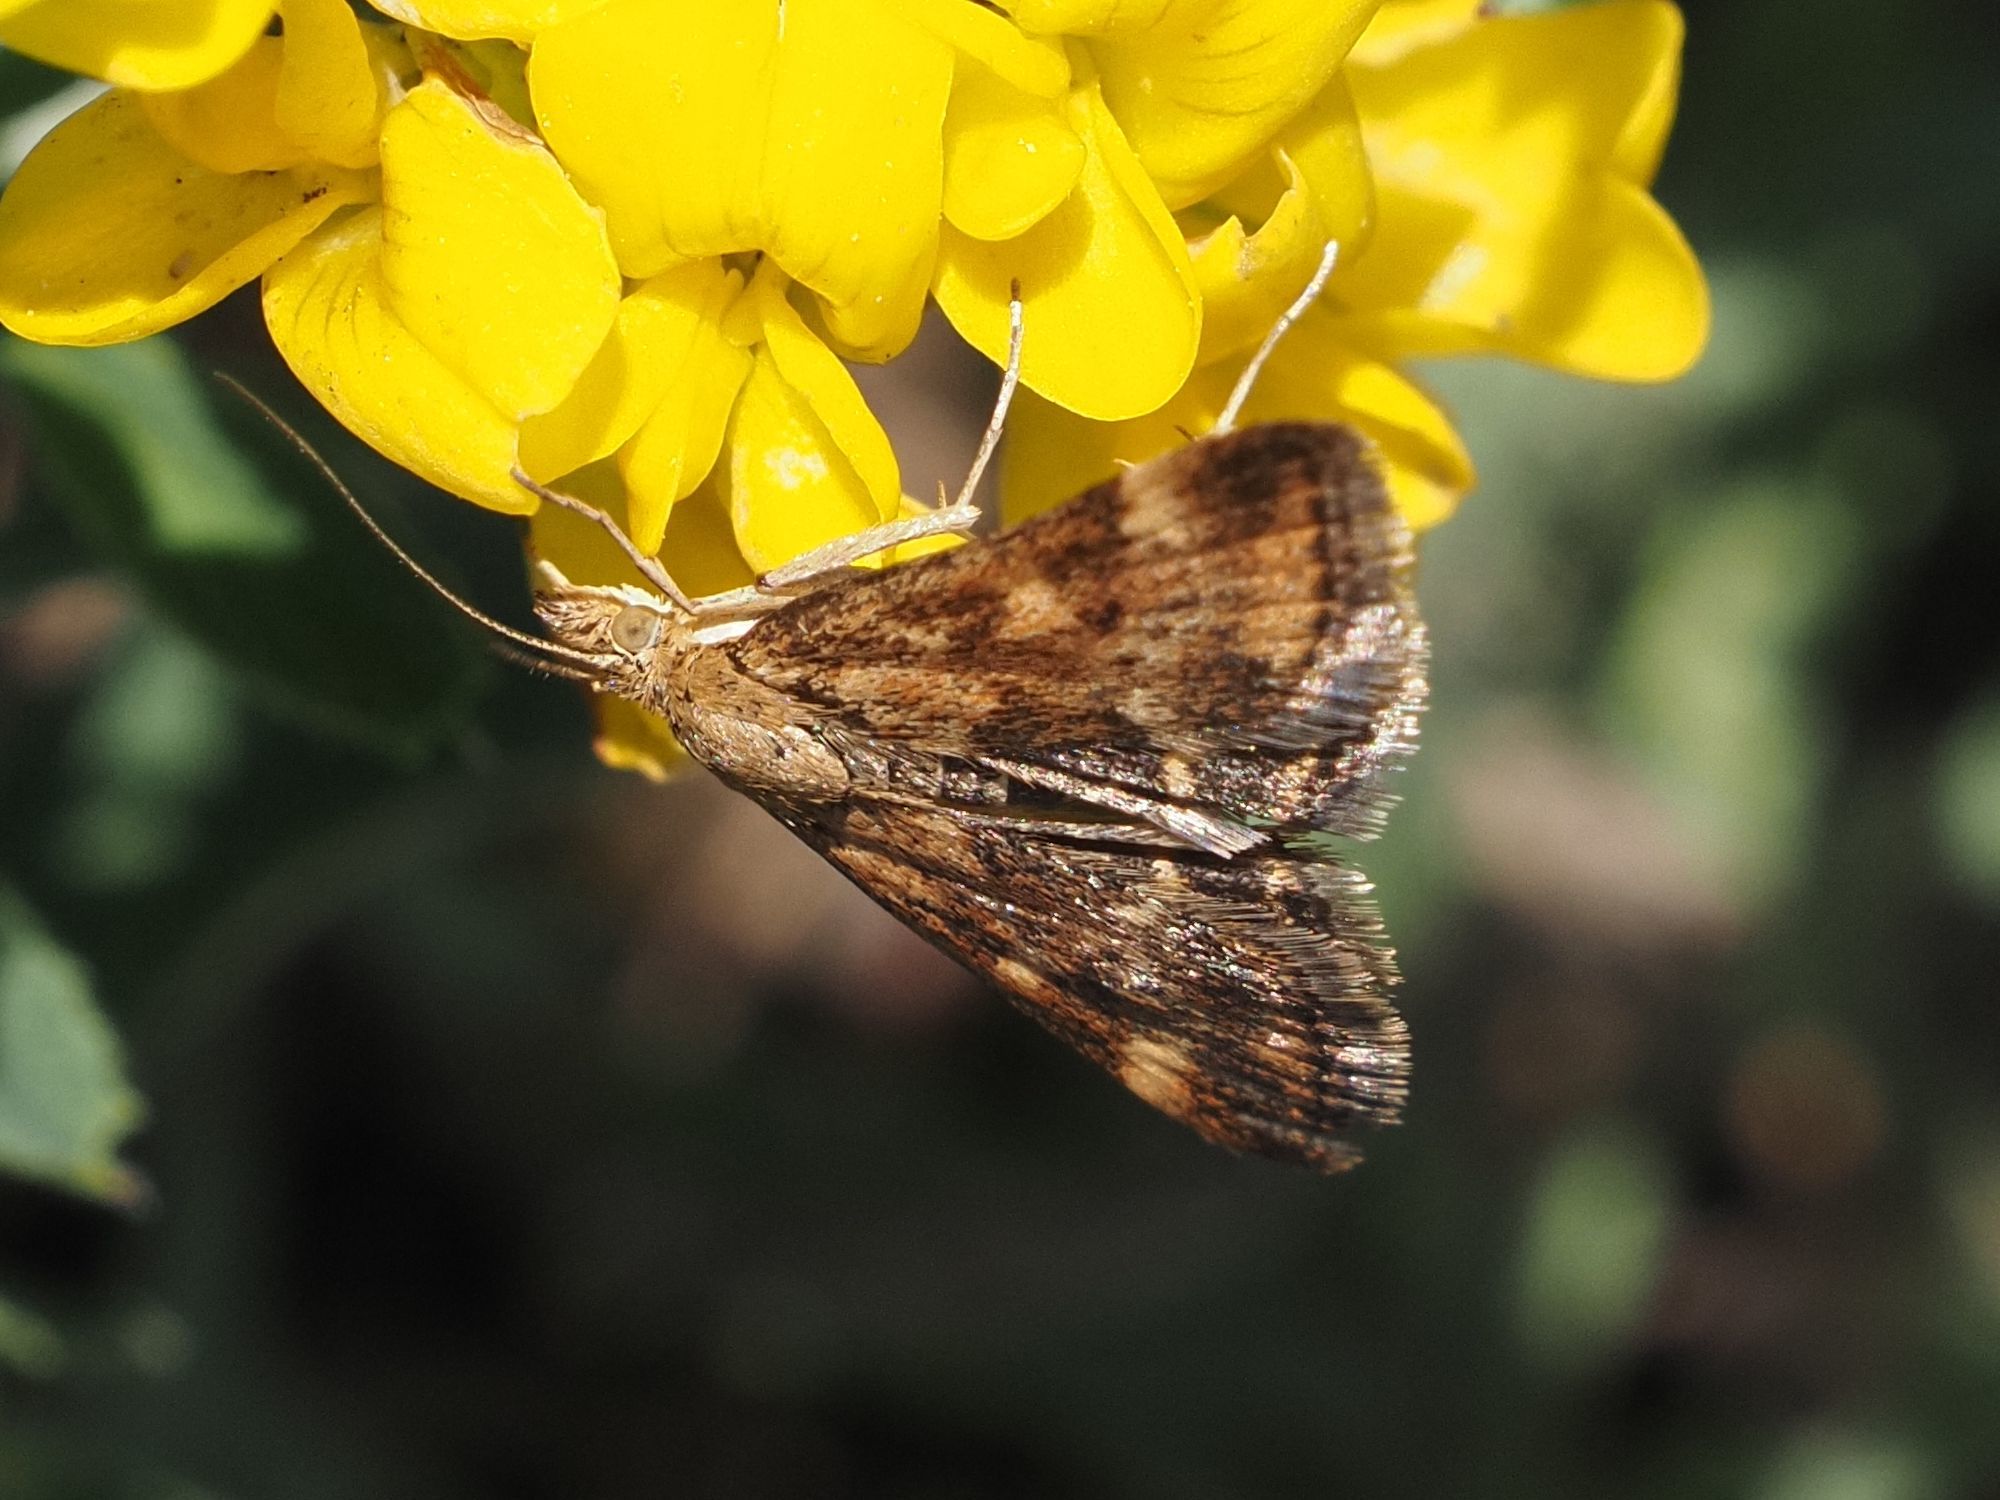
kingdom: Animalia
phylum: Arthropoda
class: Insecta
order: Lepidoptera
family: Crambidae
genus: Pyrausta
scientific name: Pyrausta despicata
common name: Straw-barred pearl
